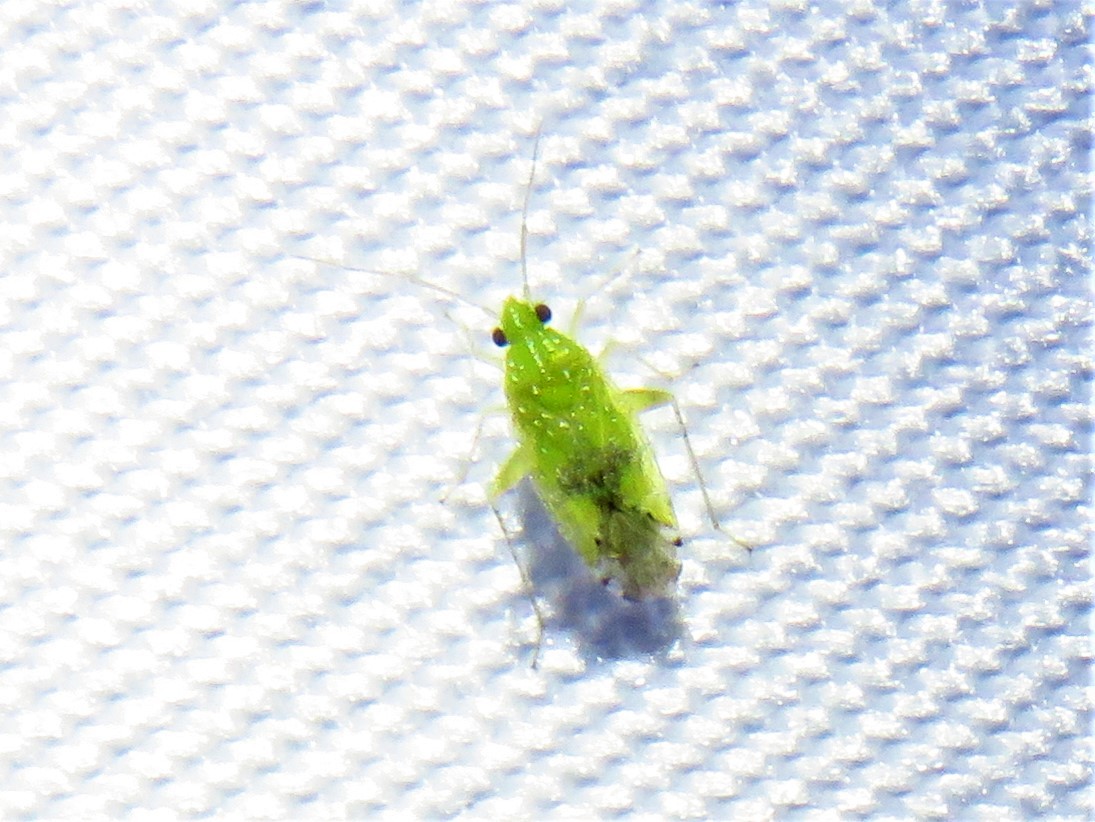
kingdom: Animalia
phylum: Arthropoda
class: Insecta
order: Hemiptera
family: Miridae
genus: Keltonia
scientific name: Keltonia tuckeri
